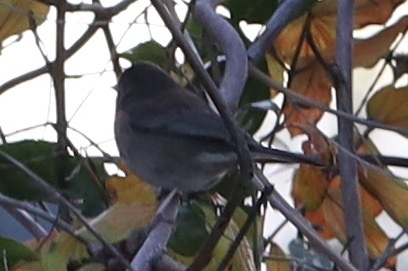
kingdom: Animalia
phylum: Chordata
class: Aves
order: Passeriformes
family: Passerellidae
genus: Junco
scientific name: Junco hyemalis
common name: Dark-eyed junco
